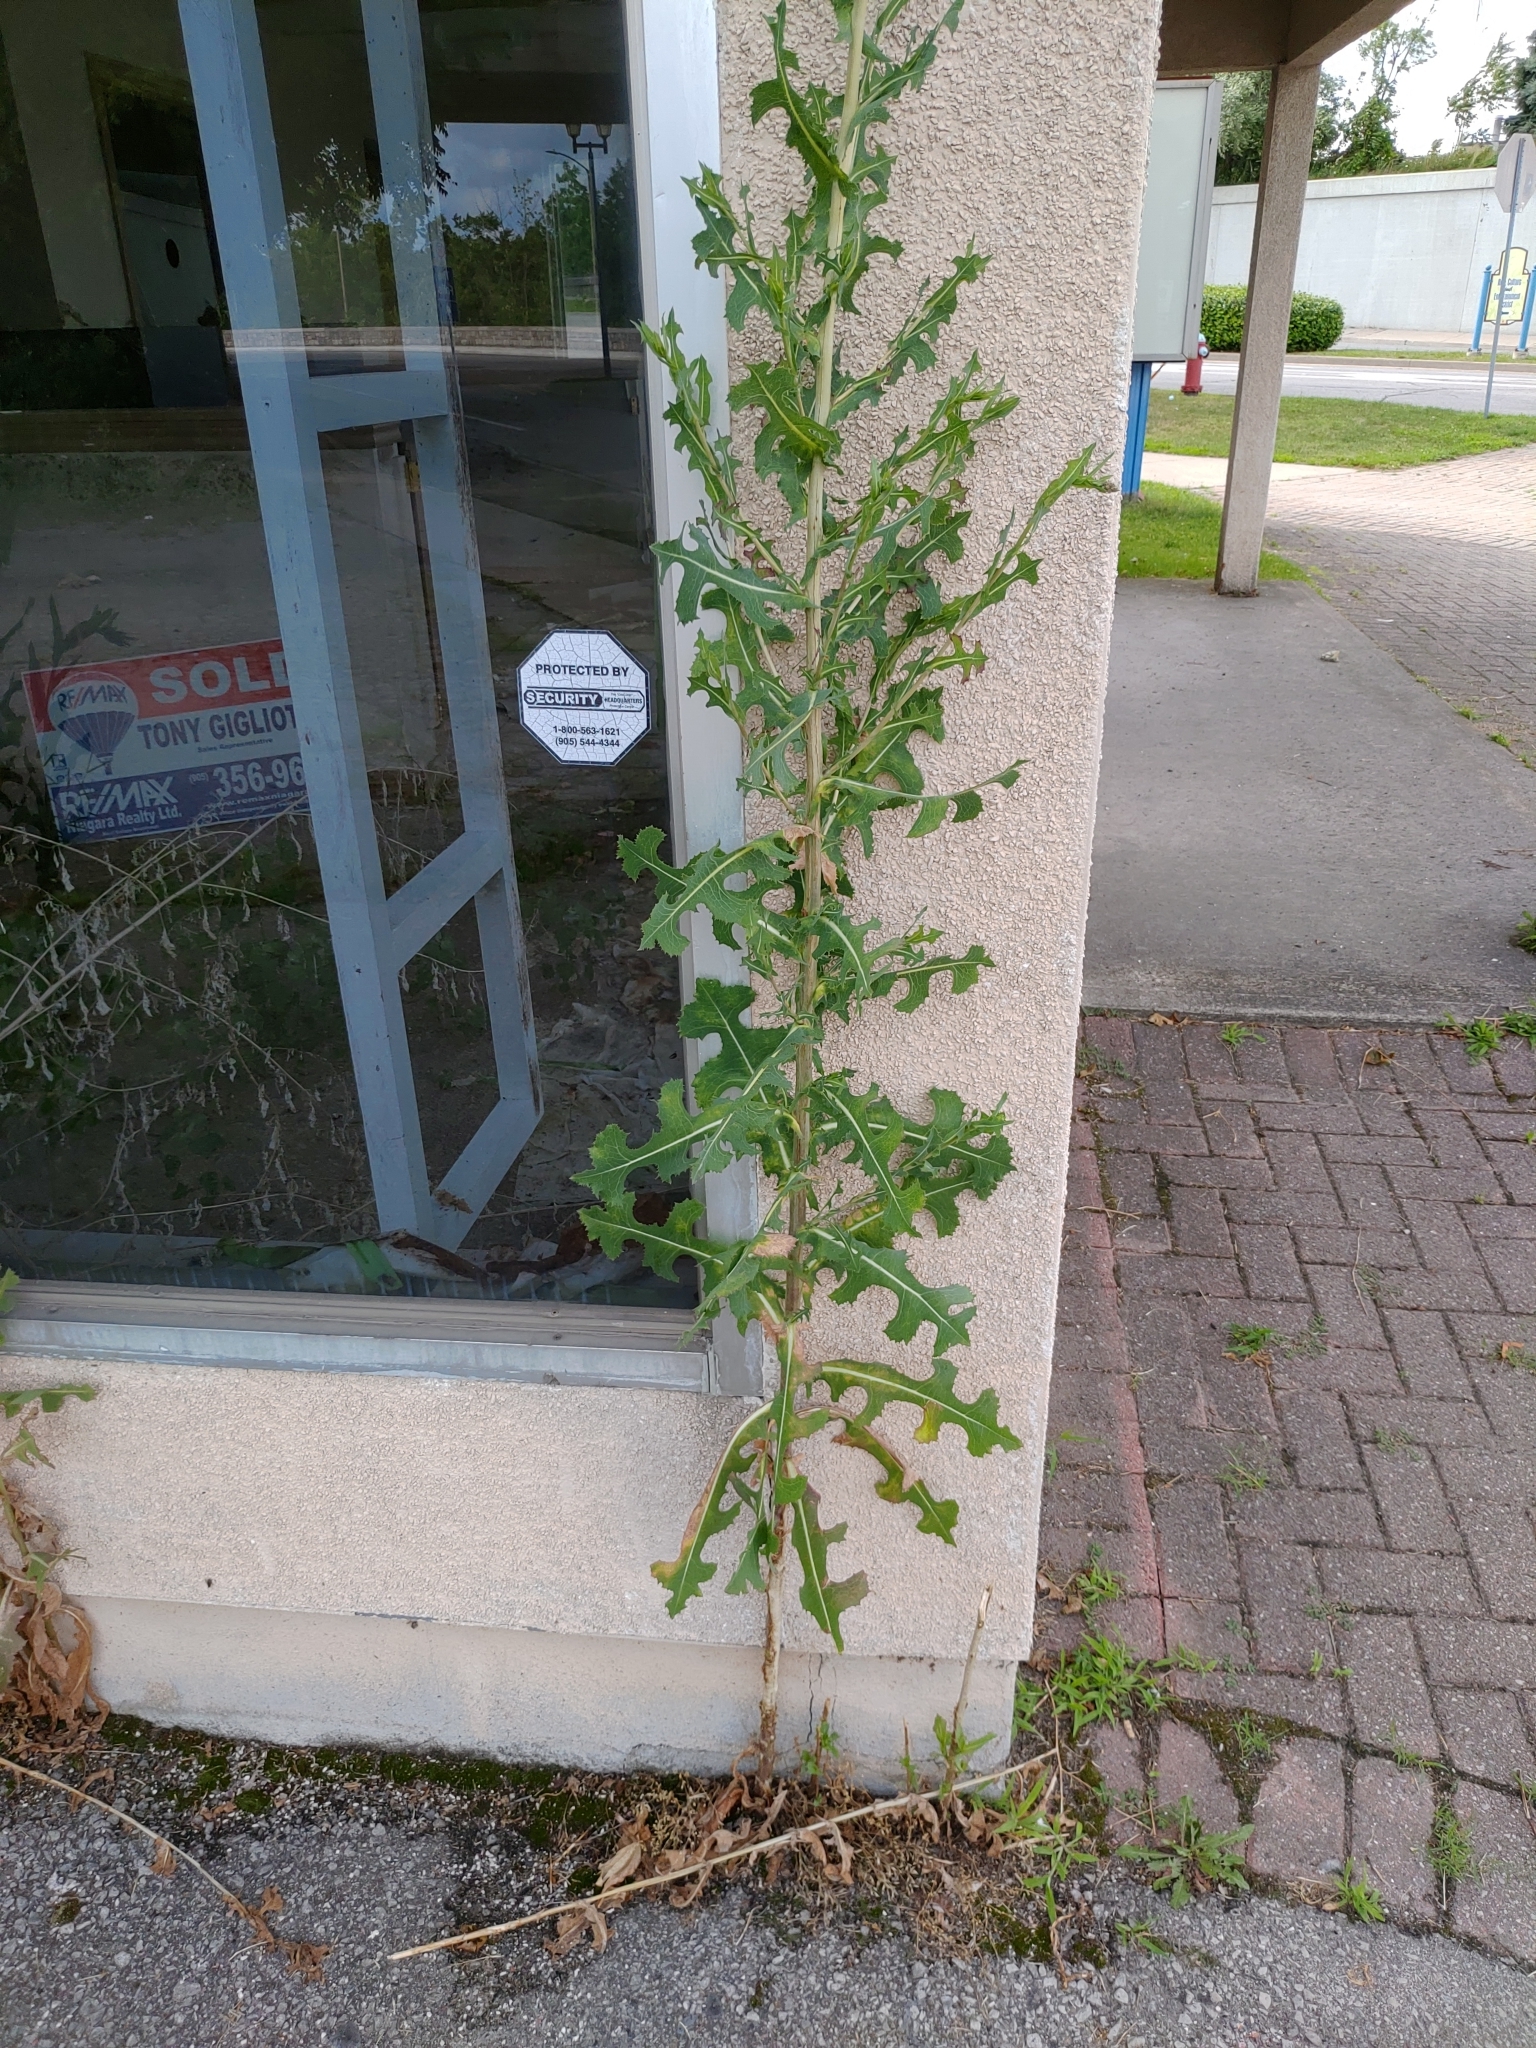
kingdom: Plantae
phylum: Tracheophyta
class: Magnoliopsida
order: Asterales
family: Asteraceae
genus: Lactuca
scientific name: Lactuca serriola
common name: Prickly lettuce
